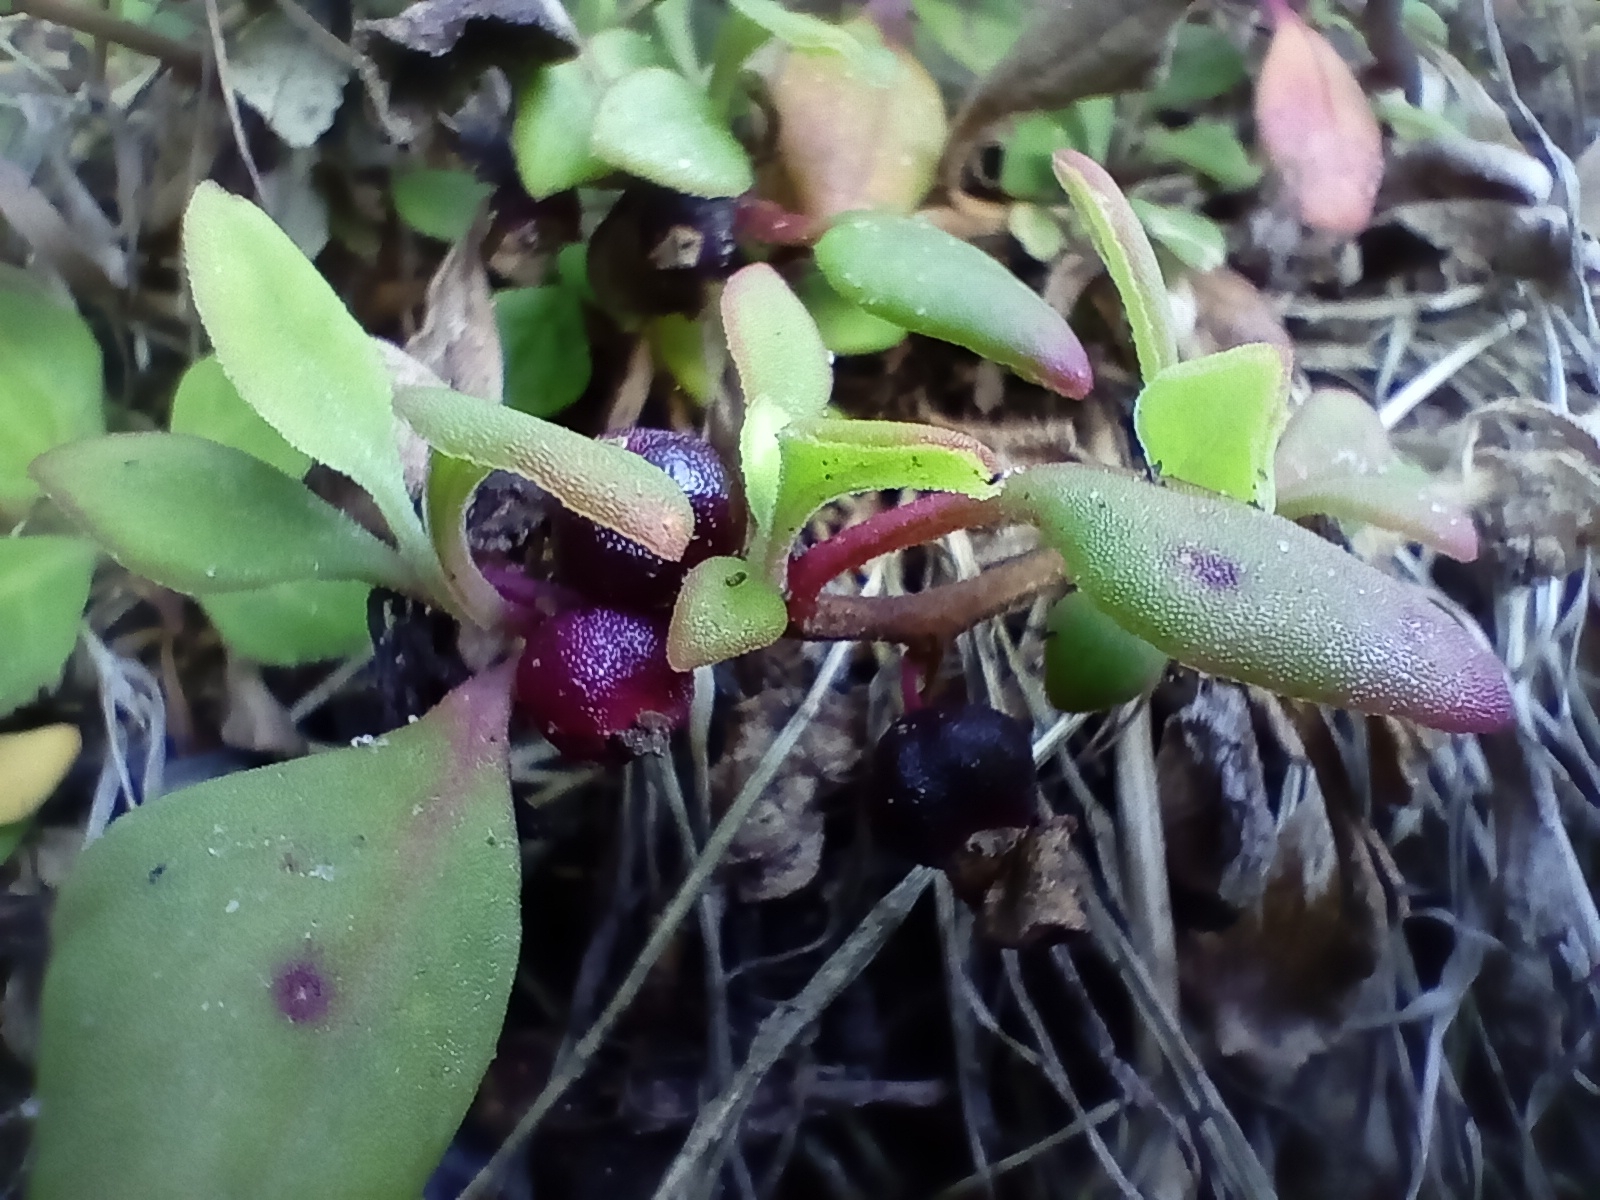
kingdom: Plantae
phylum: Tracheophyta
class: Magnoliopsida
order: Caryophyllales
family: Aizoaceae
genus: Tetragonia
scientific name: Tetragonia implexicoma
